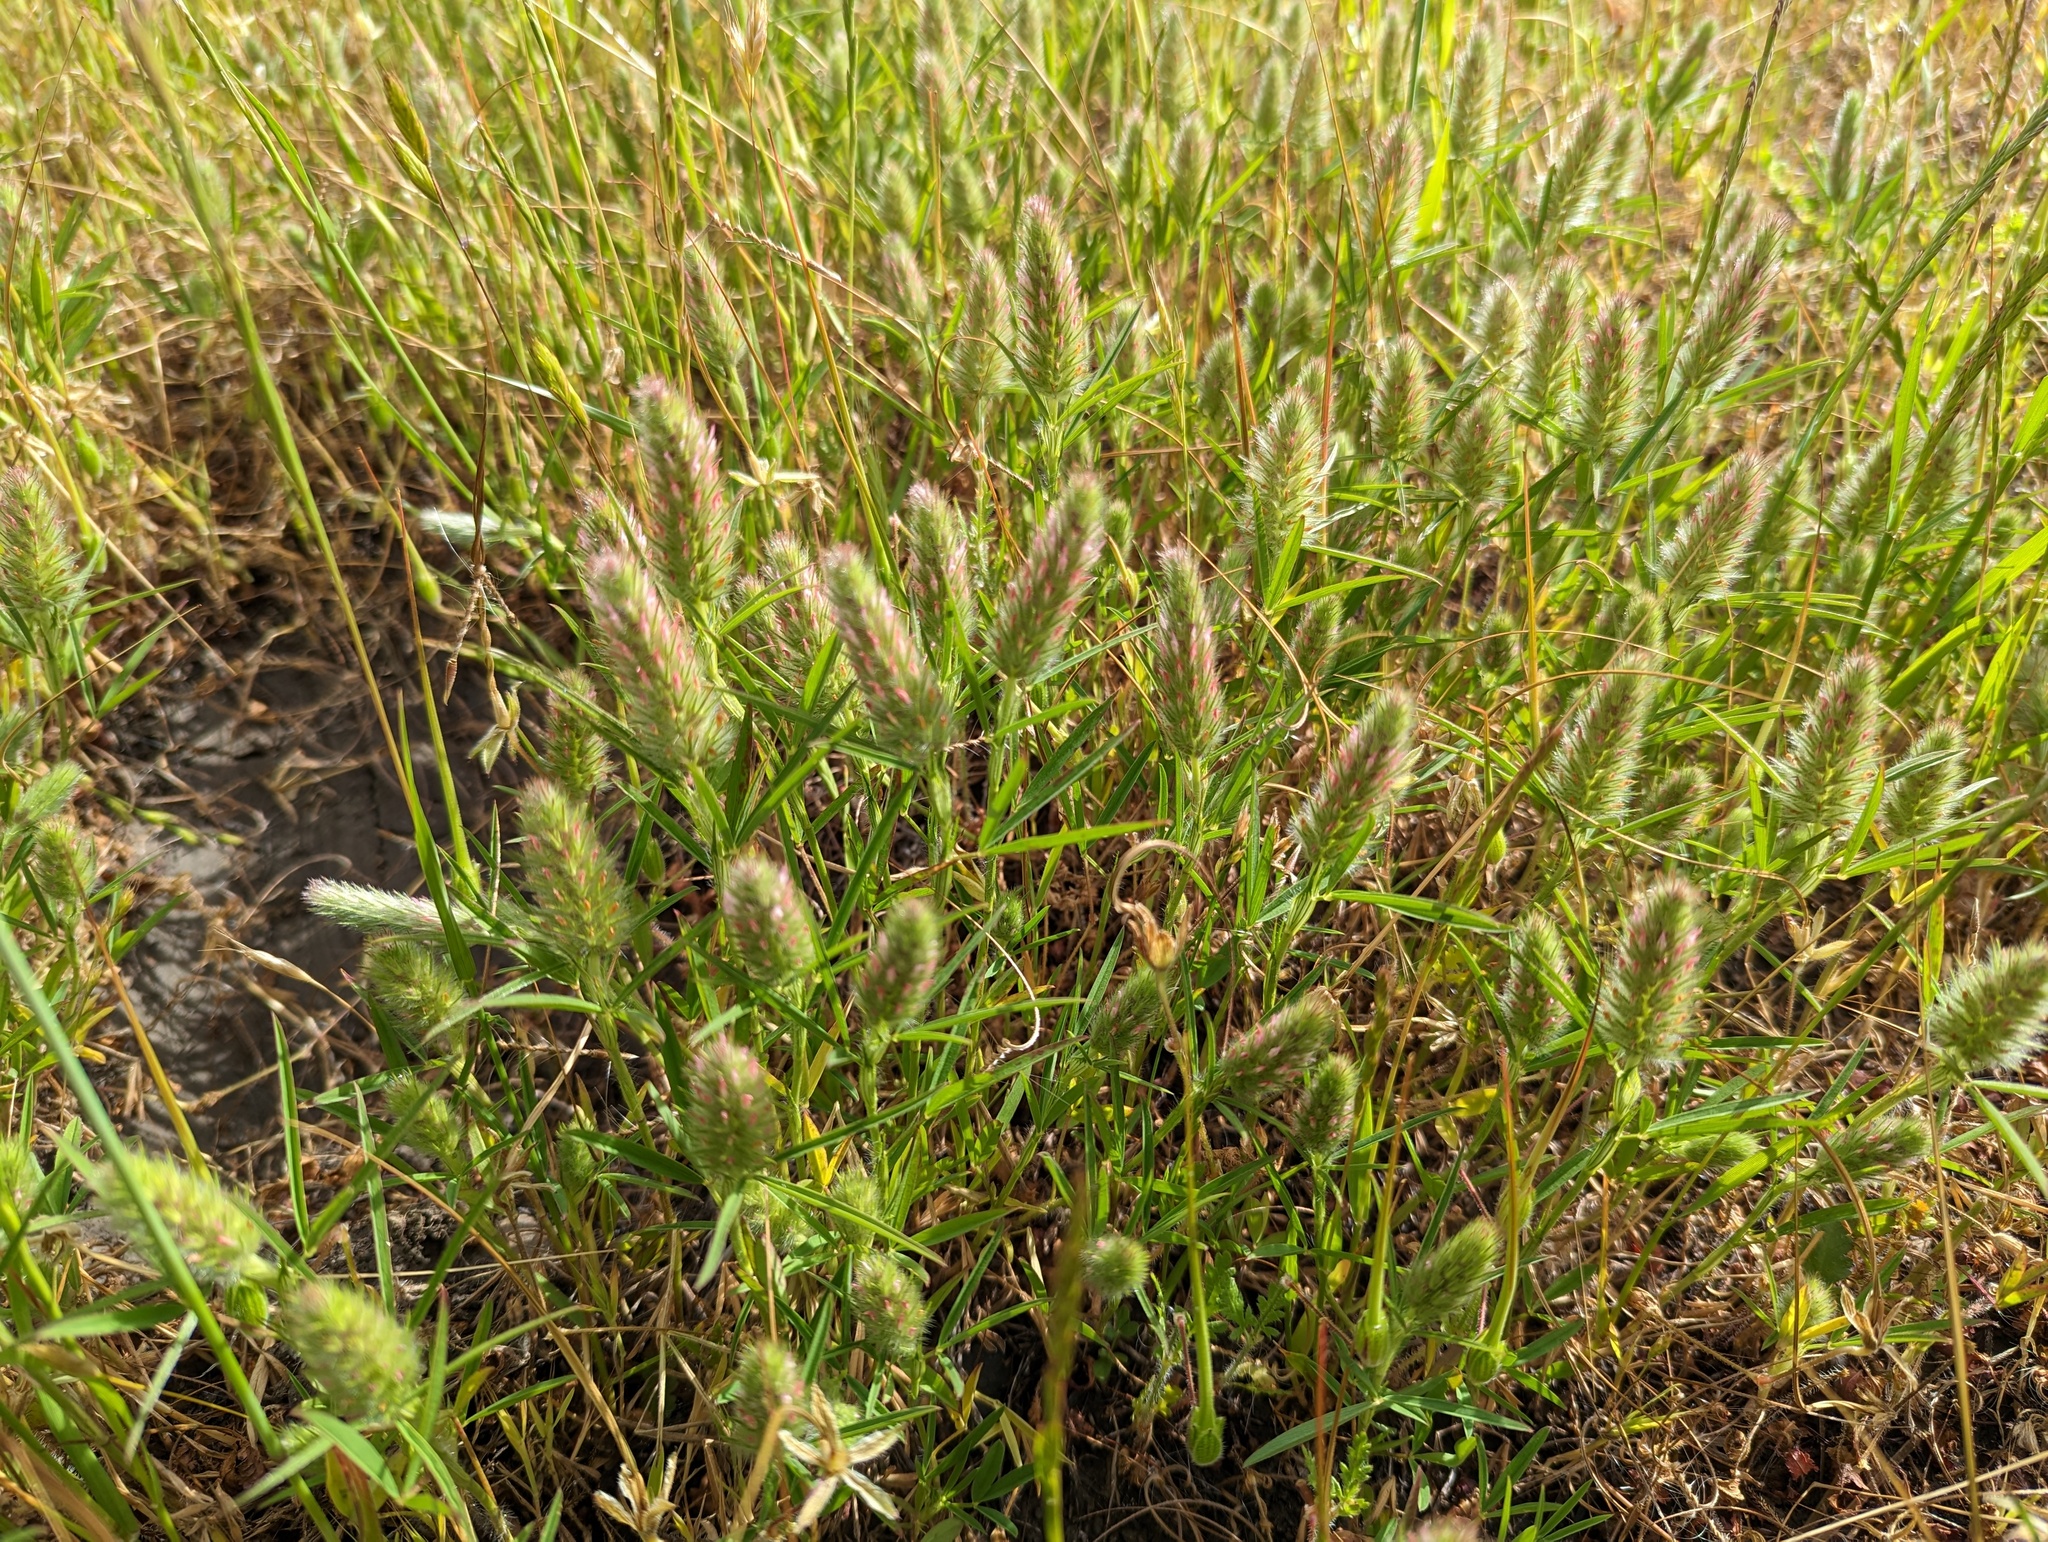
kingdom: Plantae
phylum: Tracheophyta
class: Magnoliopsida
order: Fabales
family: Fabaceae
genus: Trifolium
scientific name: Trifolium angustifolium
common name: Narrow clover
